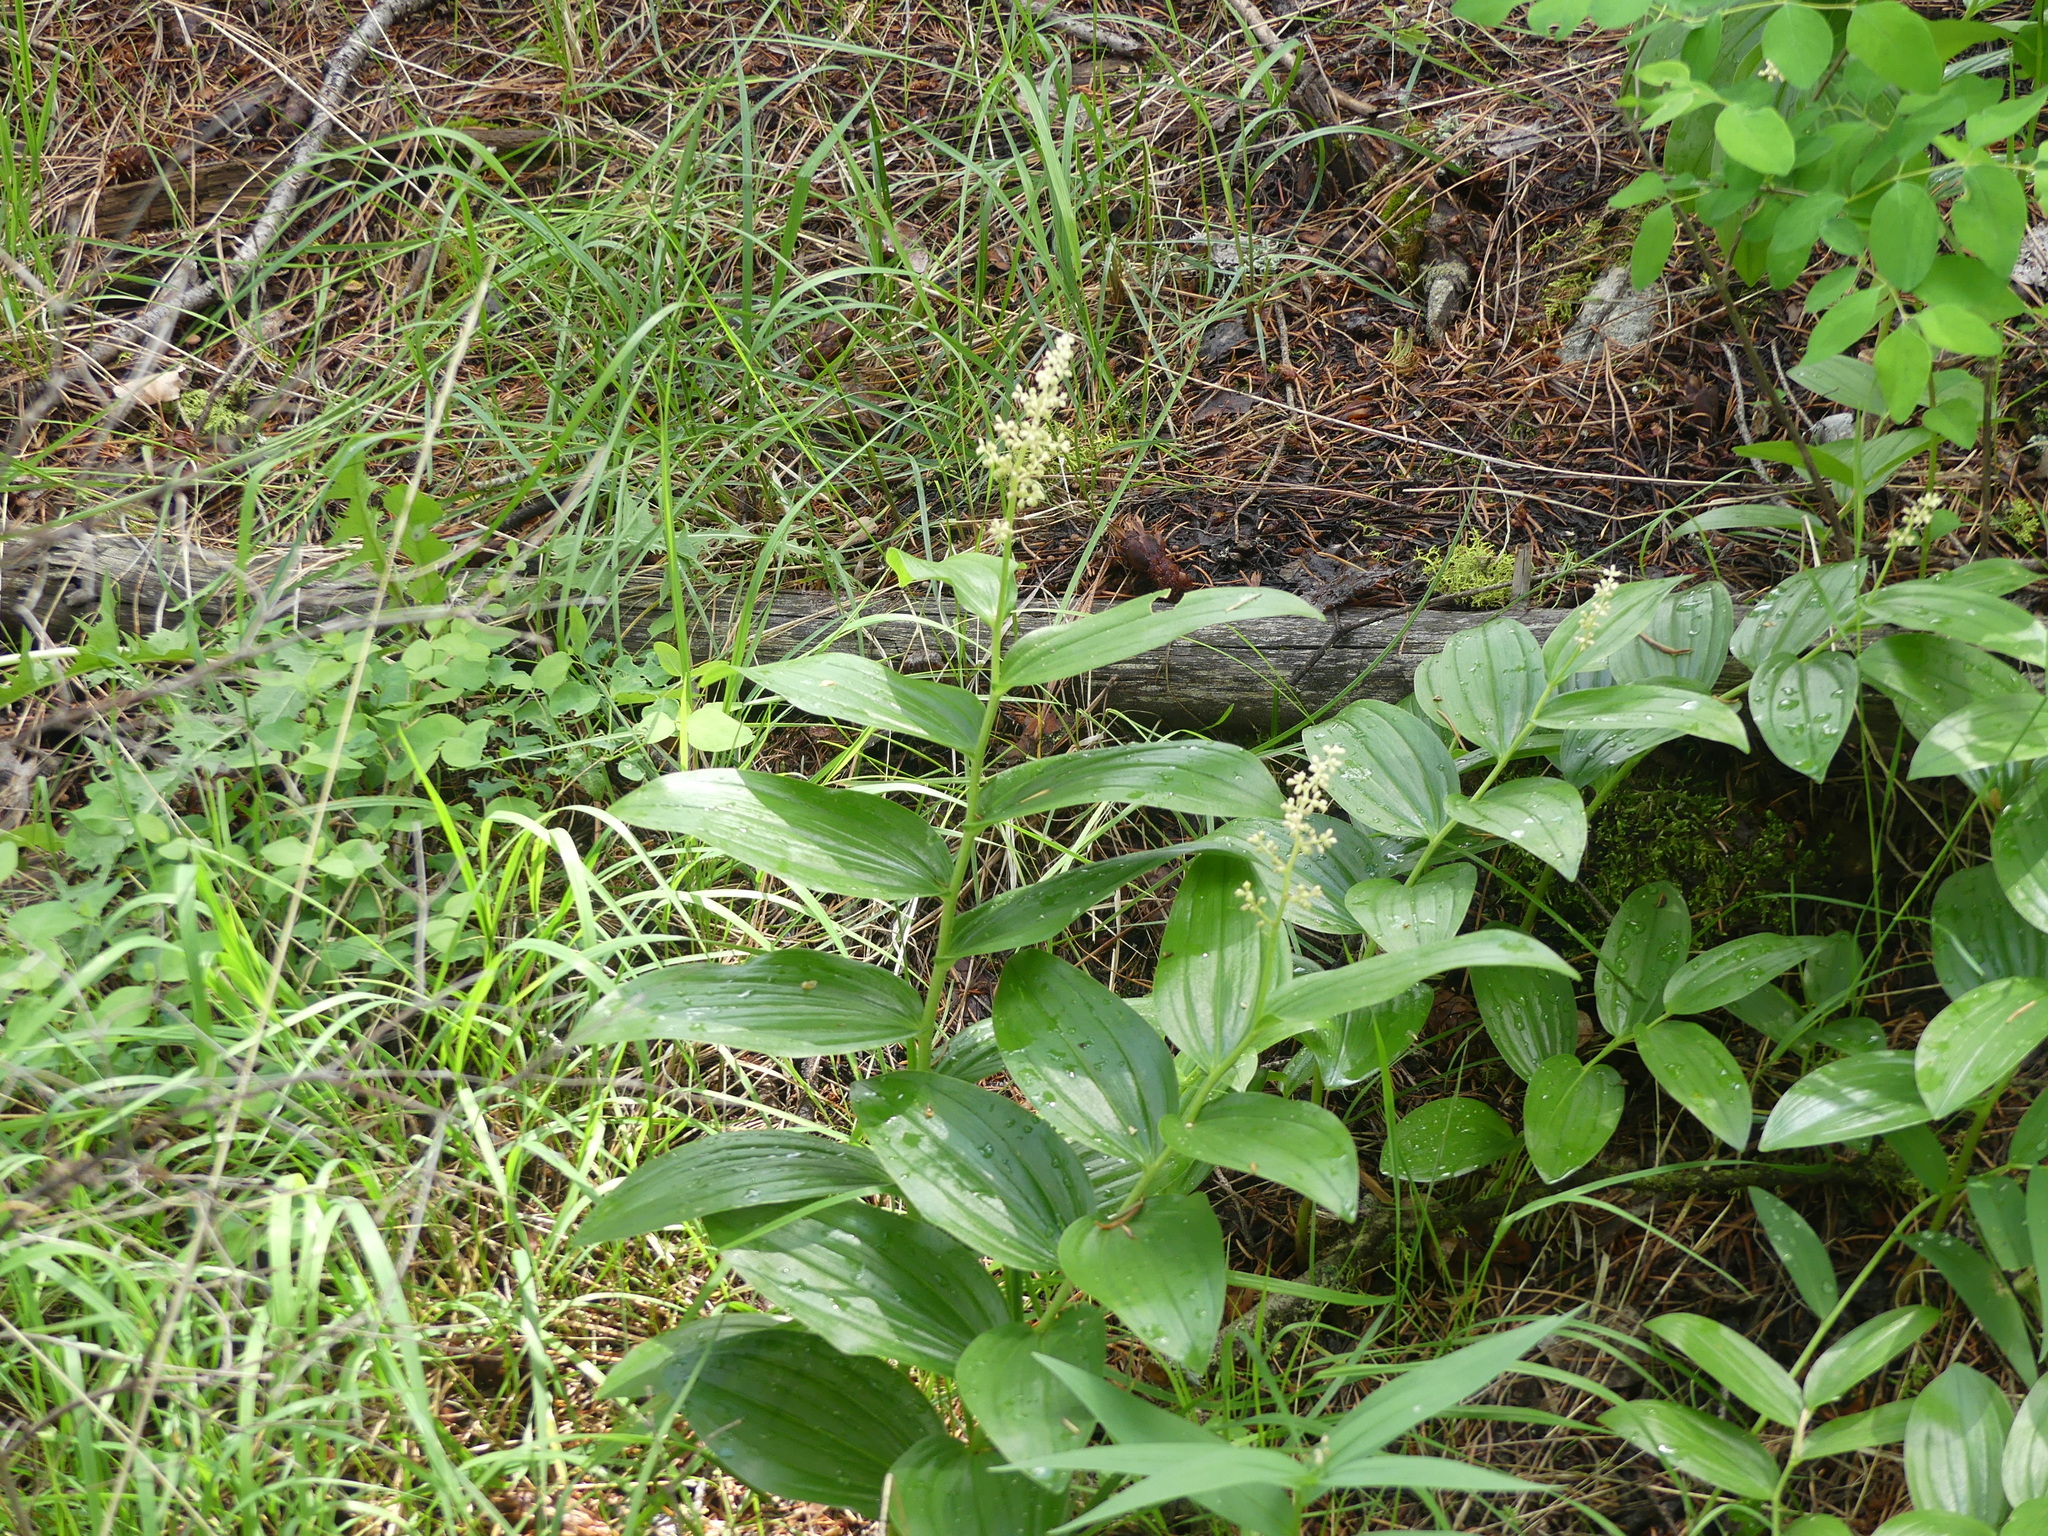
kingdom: Plantae
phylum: Tracheophyta
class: Liliopsida
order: Asparagales
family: Asparagaceae
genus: Maianthemum
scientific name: Maianthemum racemosum
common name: False spikenard
